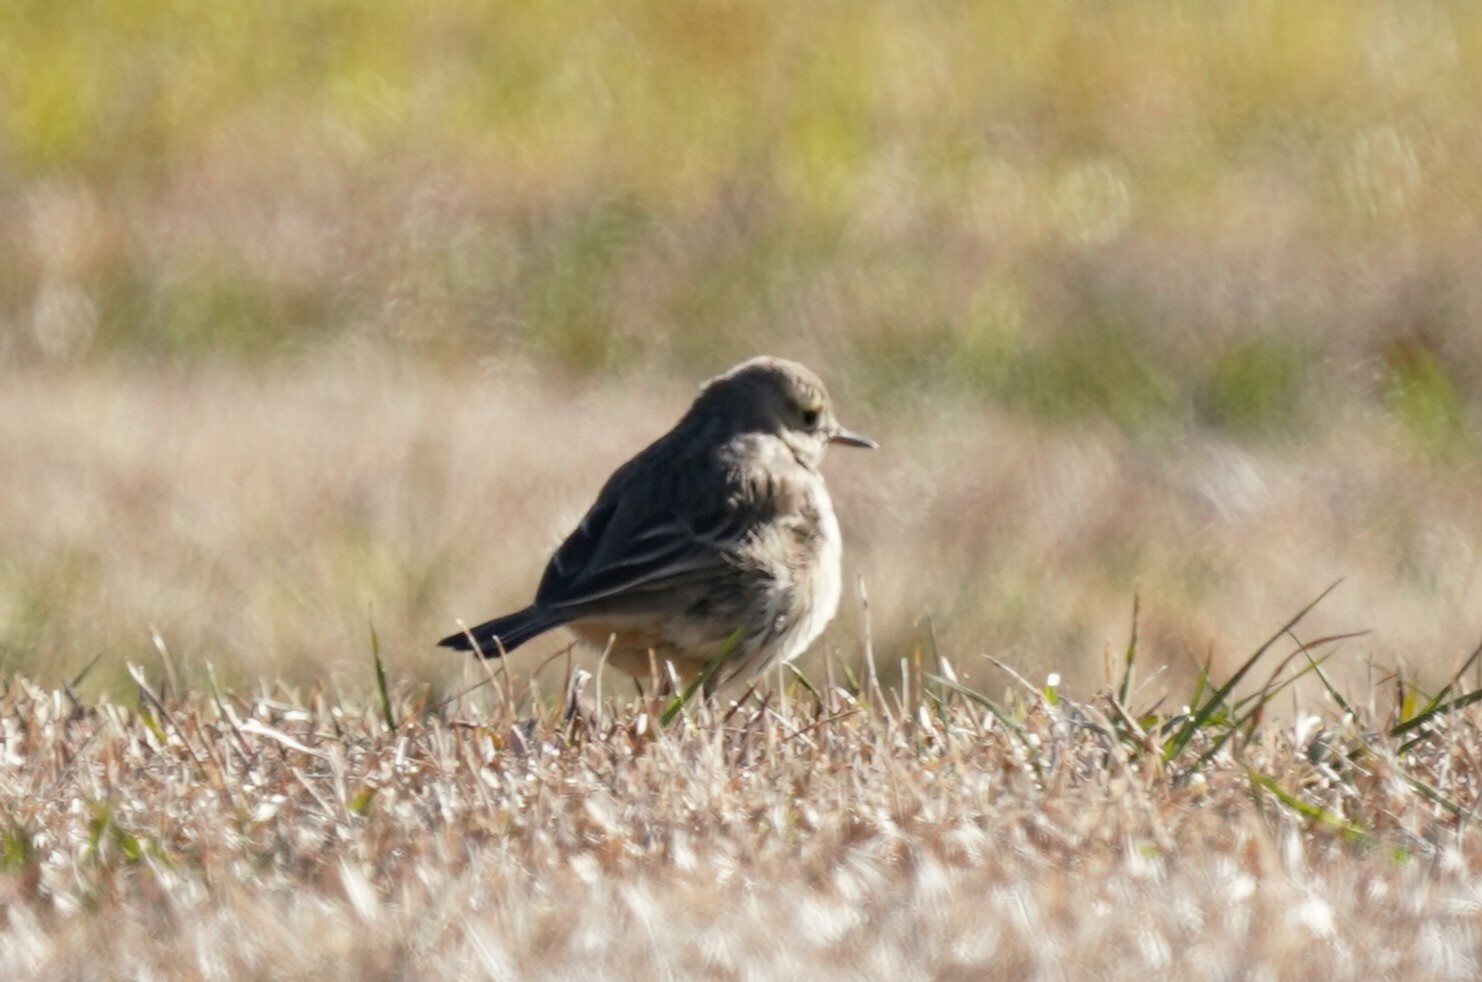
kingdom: Animalia
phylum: Chordata
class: Aves
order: Passeriformes
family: Motacillidae
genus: Anthus
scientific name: Anthus rubescens
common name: Buff-bellied pipit
